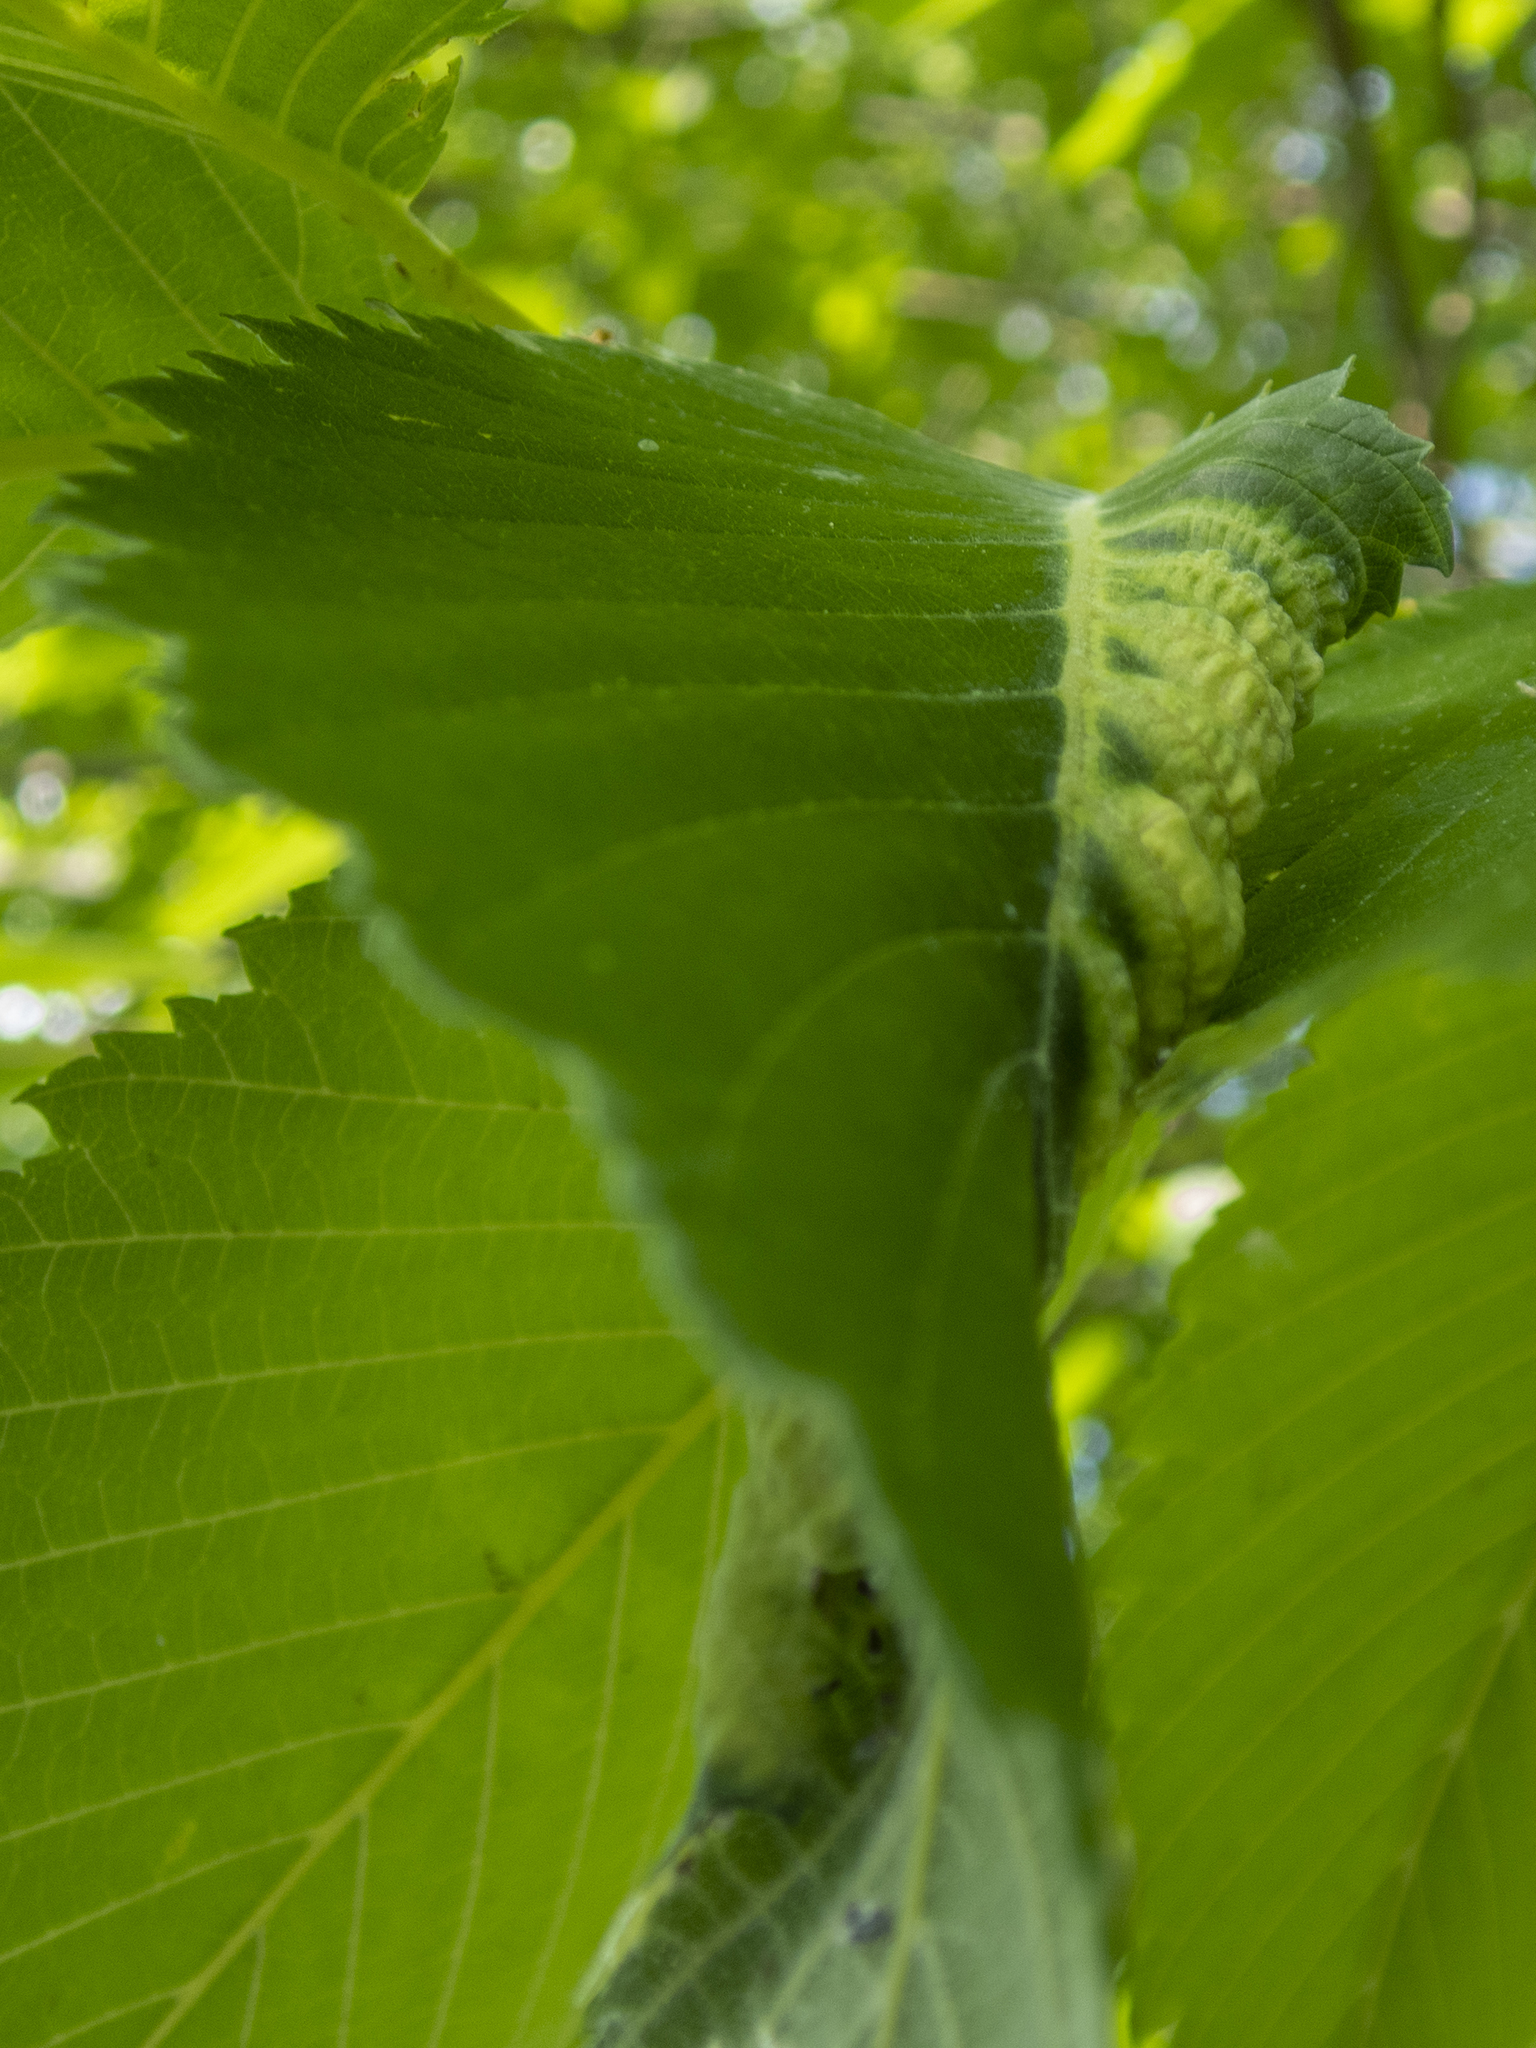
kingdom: Animalia
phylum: Arthropoda
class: Insecta
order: Hemiptera
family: Aphididae
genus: Eriosoma
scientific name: Eriosoma americanum
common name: Woolly elm aphid
